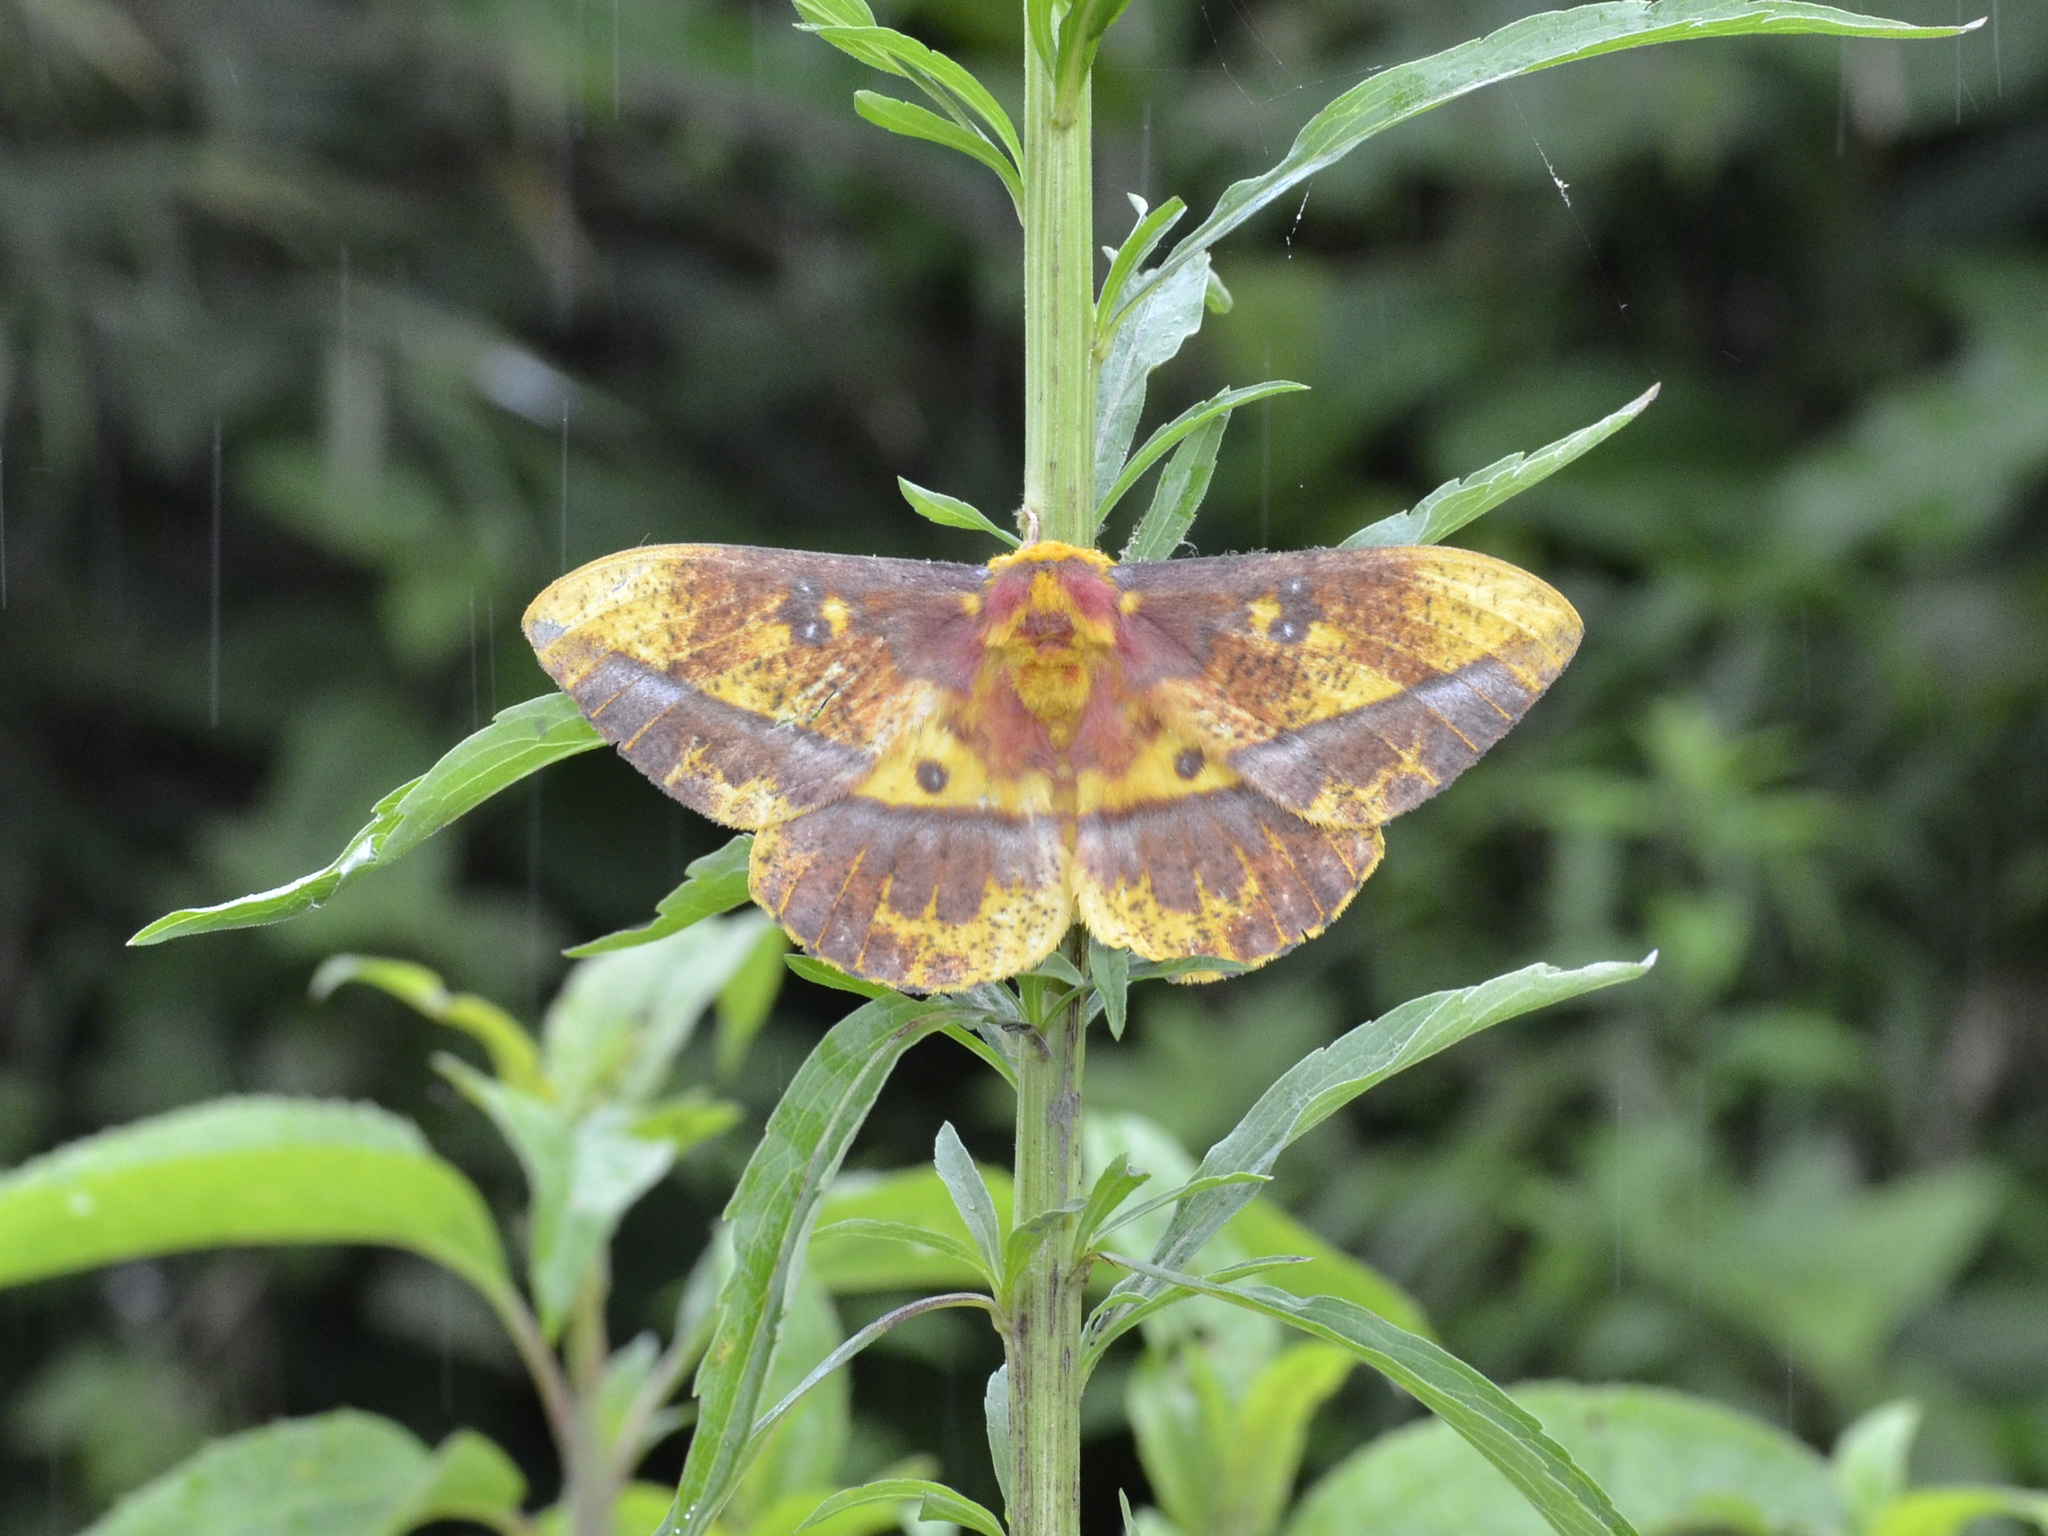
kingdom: Animalia
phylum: Arthropoda
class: Insecta
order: Lepidoptera
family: Saturniidae
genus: Bathyphlebia
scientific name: Bathyphlebia eminens
